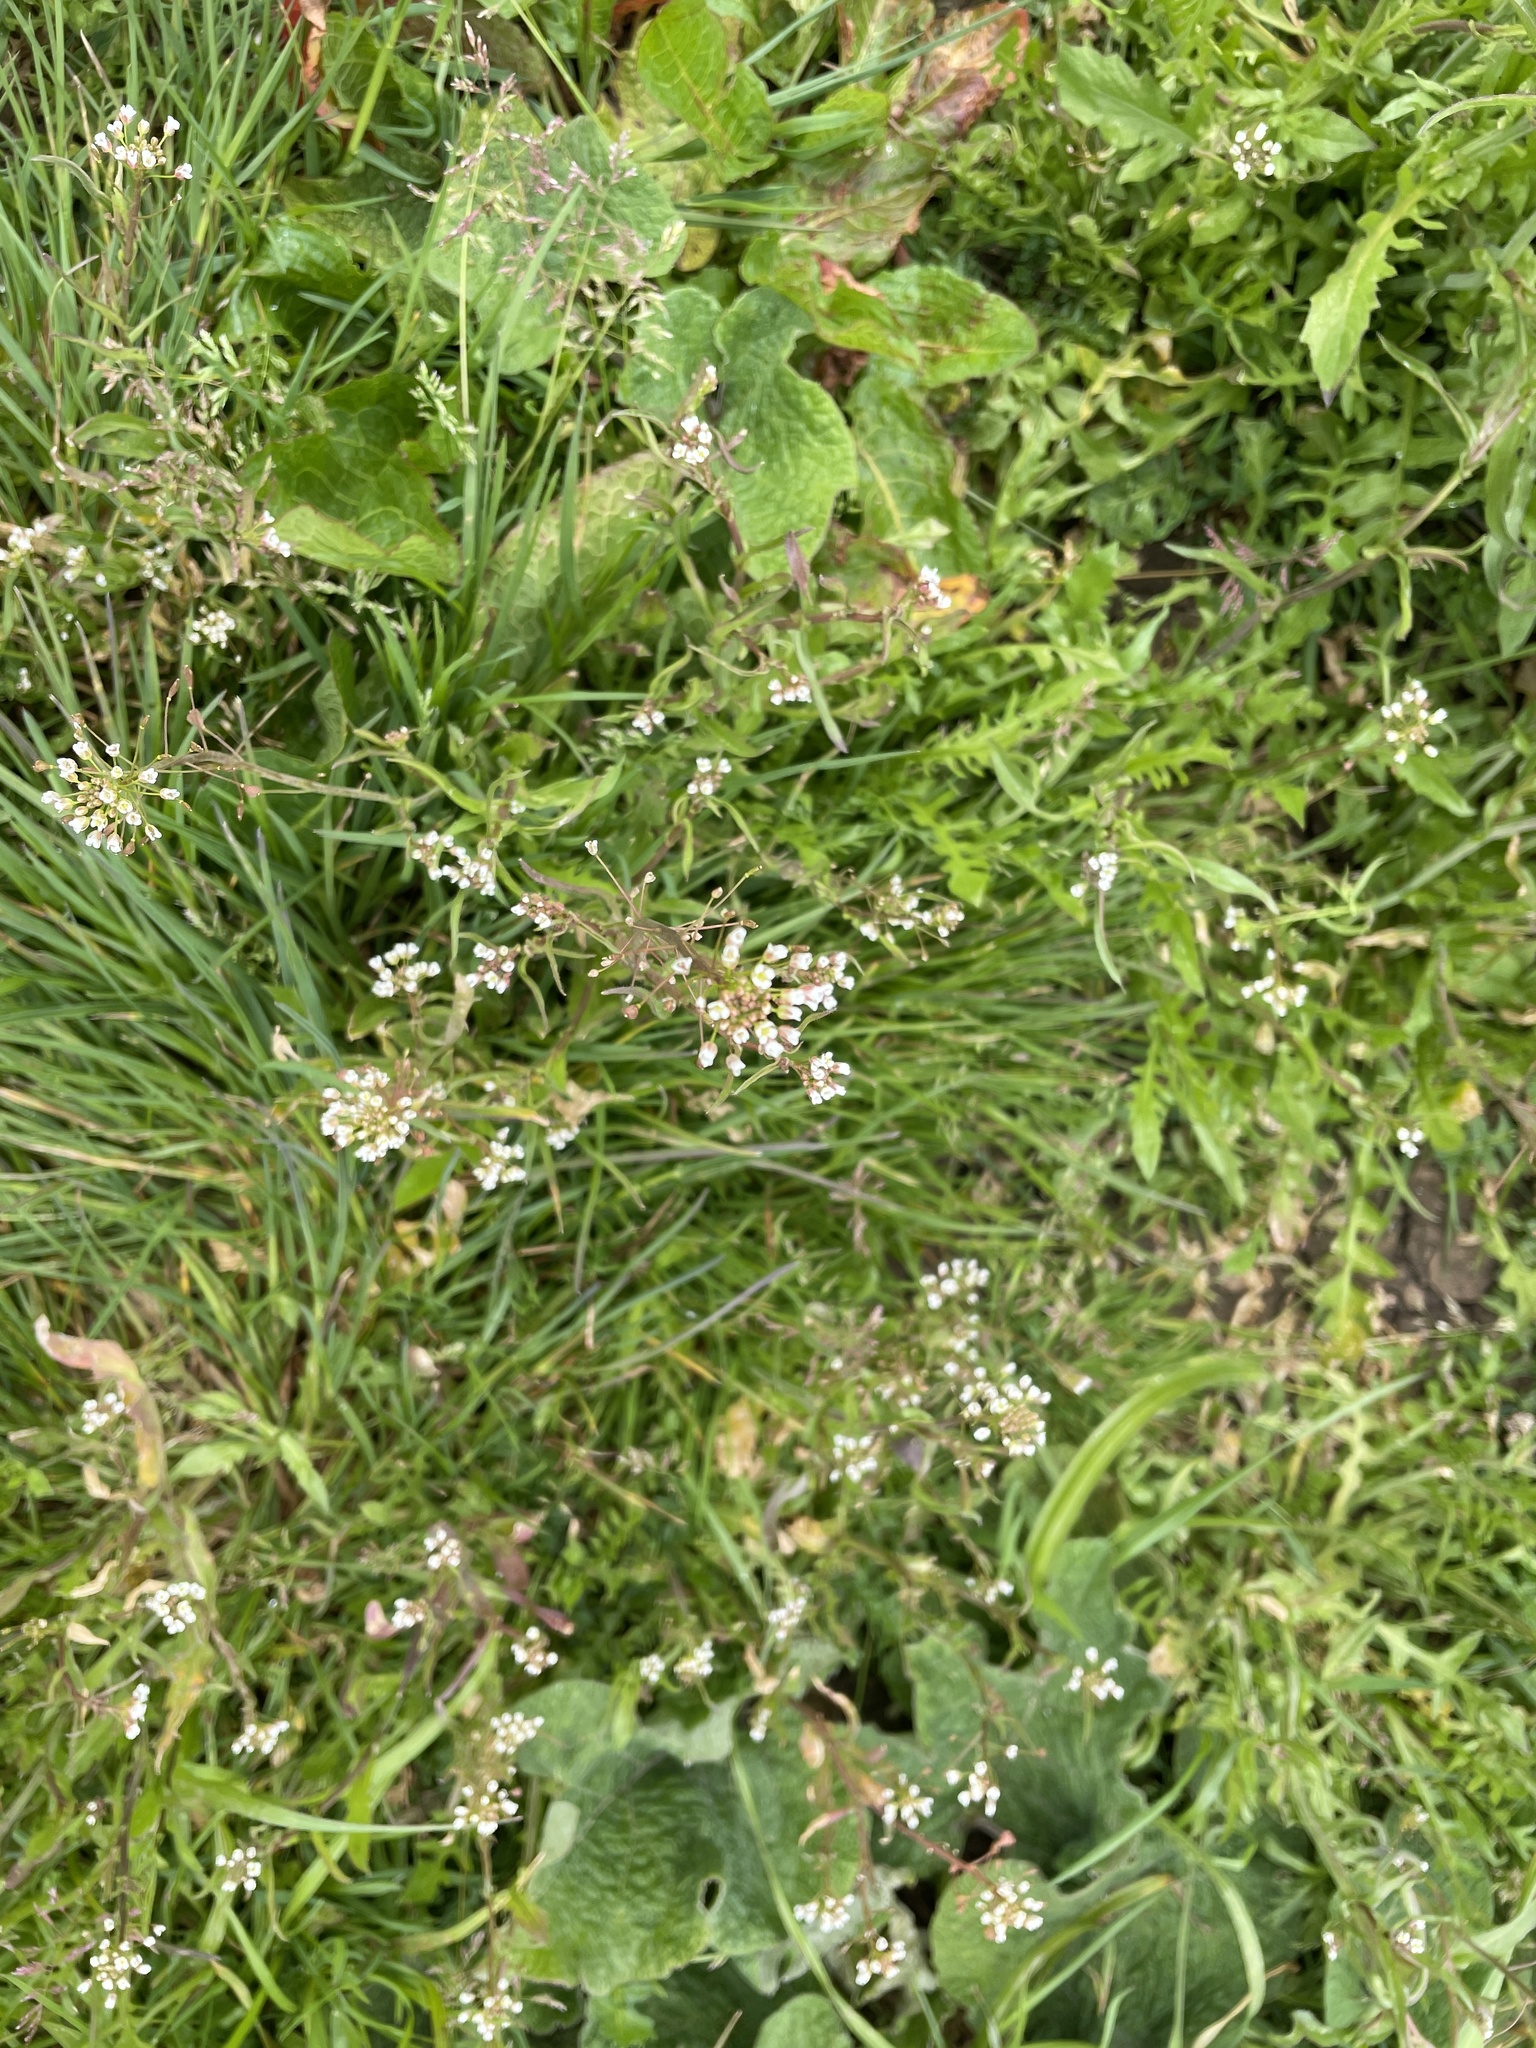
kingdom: Plantae
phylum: Tracheophyta
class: Magnoliopsida
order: Brassicales
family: Brassicaceae
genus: Capsella
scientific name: Capsella bursa-pastoris
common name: Shepherd's purse
